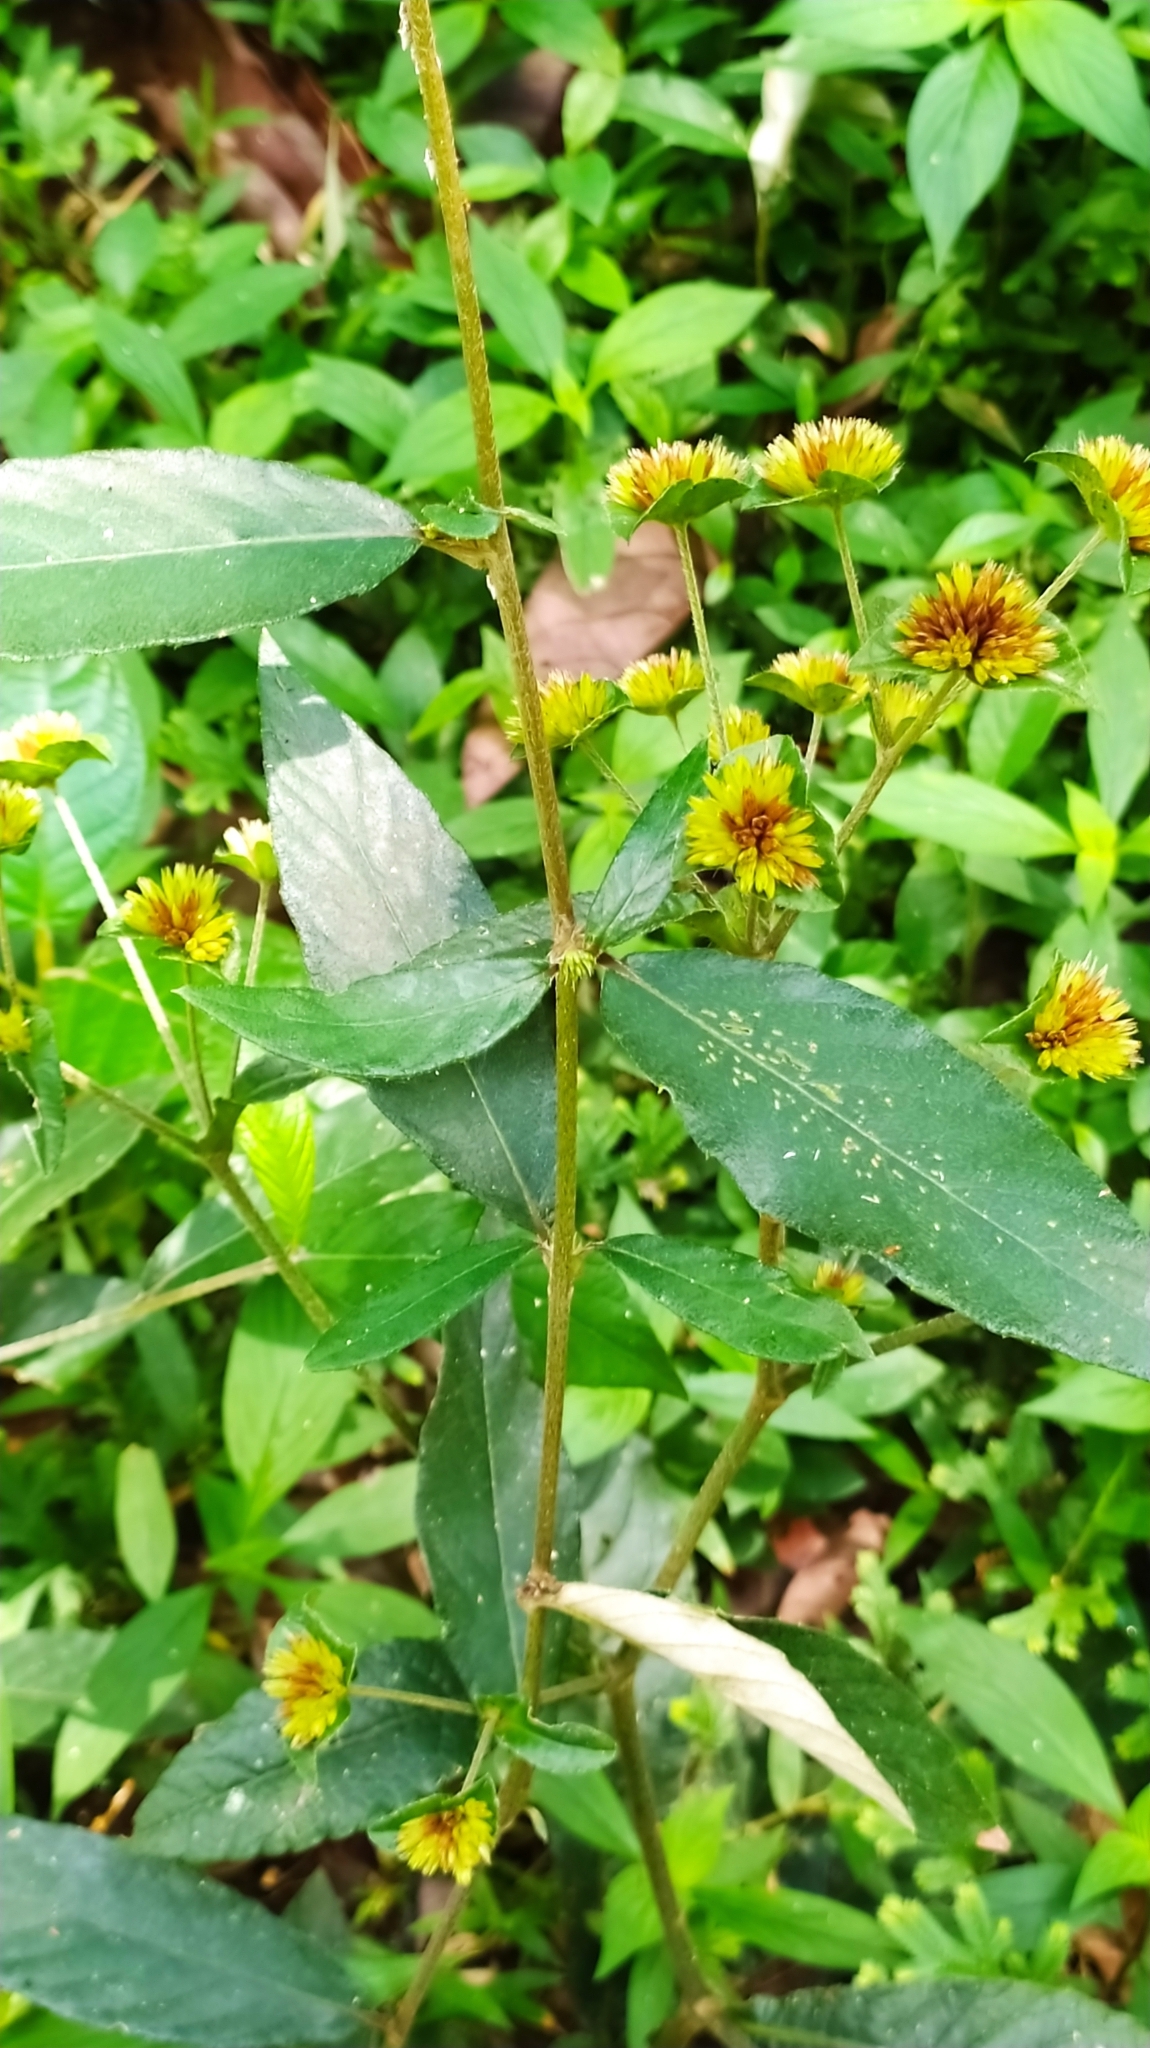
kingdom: Plantae
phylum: Tracheophyta
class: Magnoliopsida
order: Asterales
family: Asteraceae
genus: Rolandra
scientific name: Rolandra fruticosa
